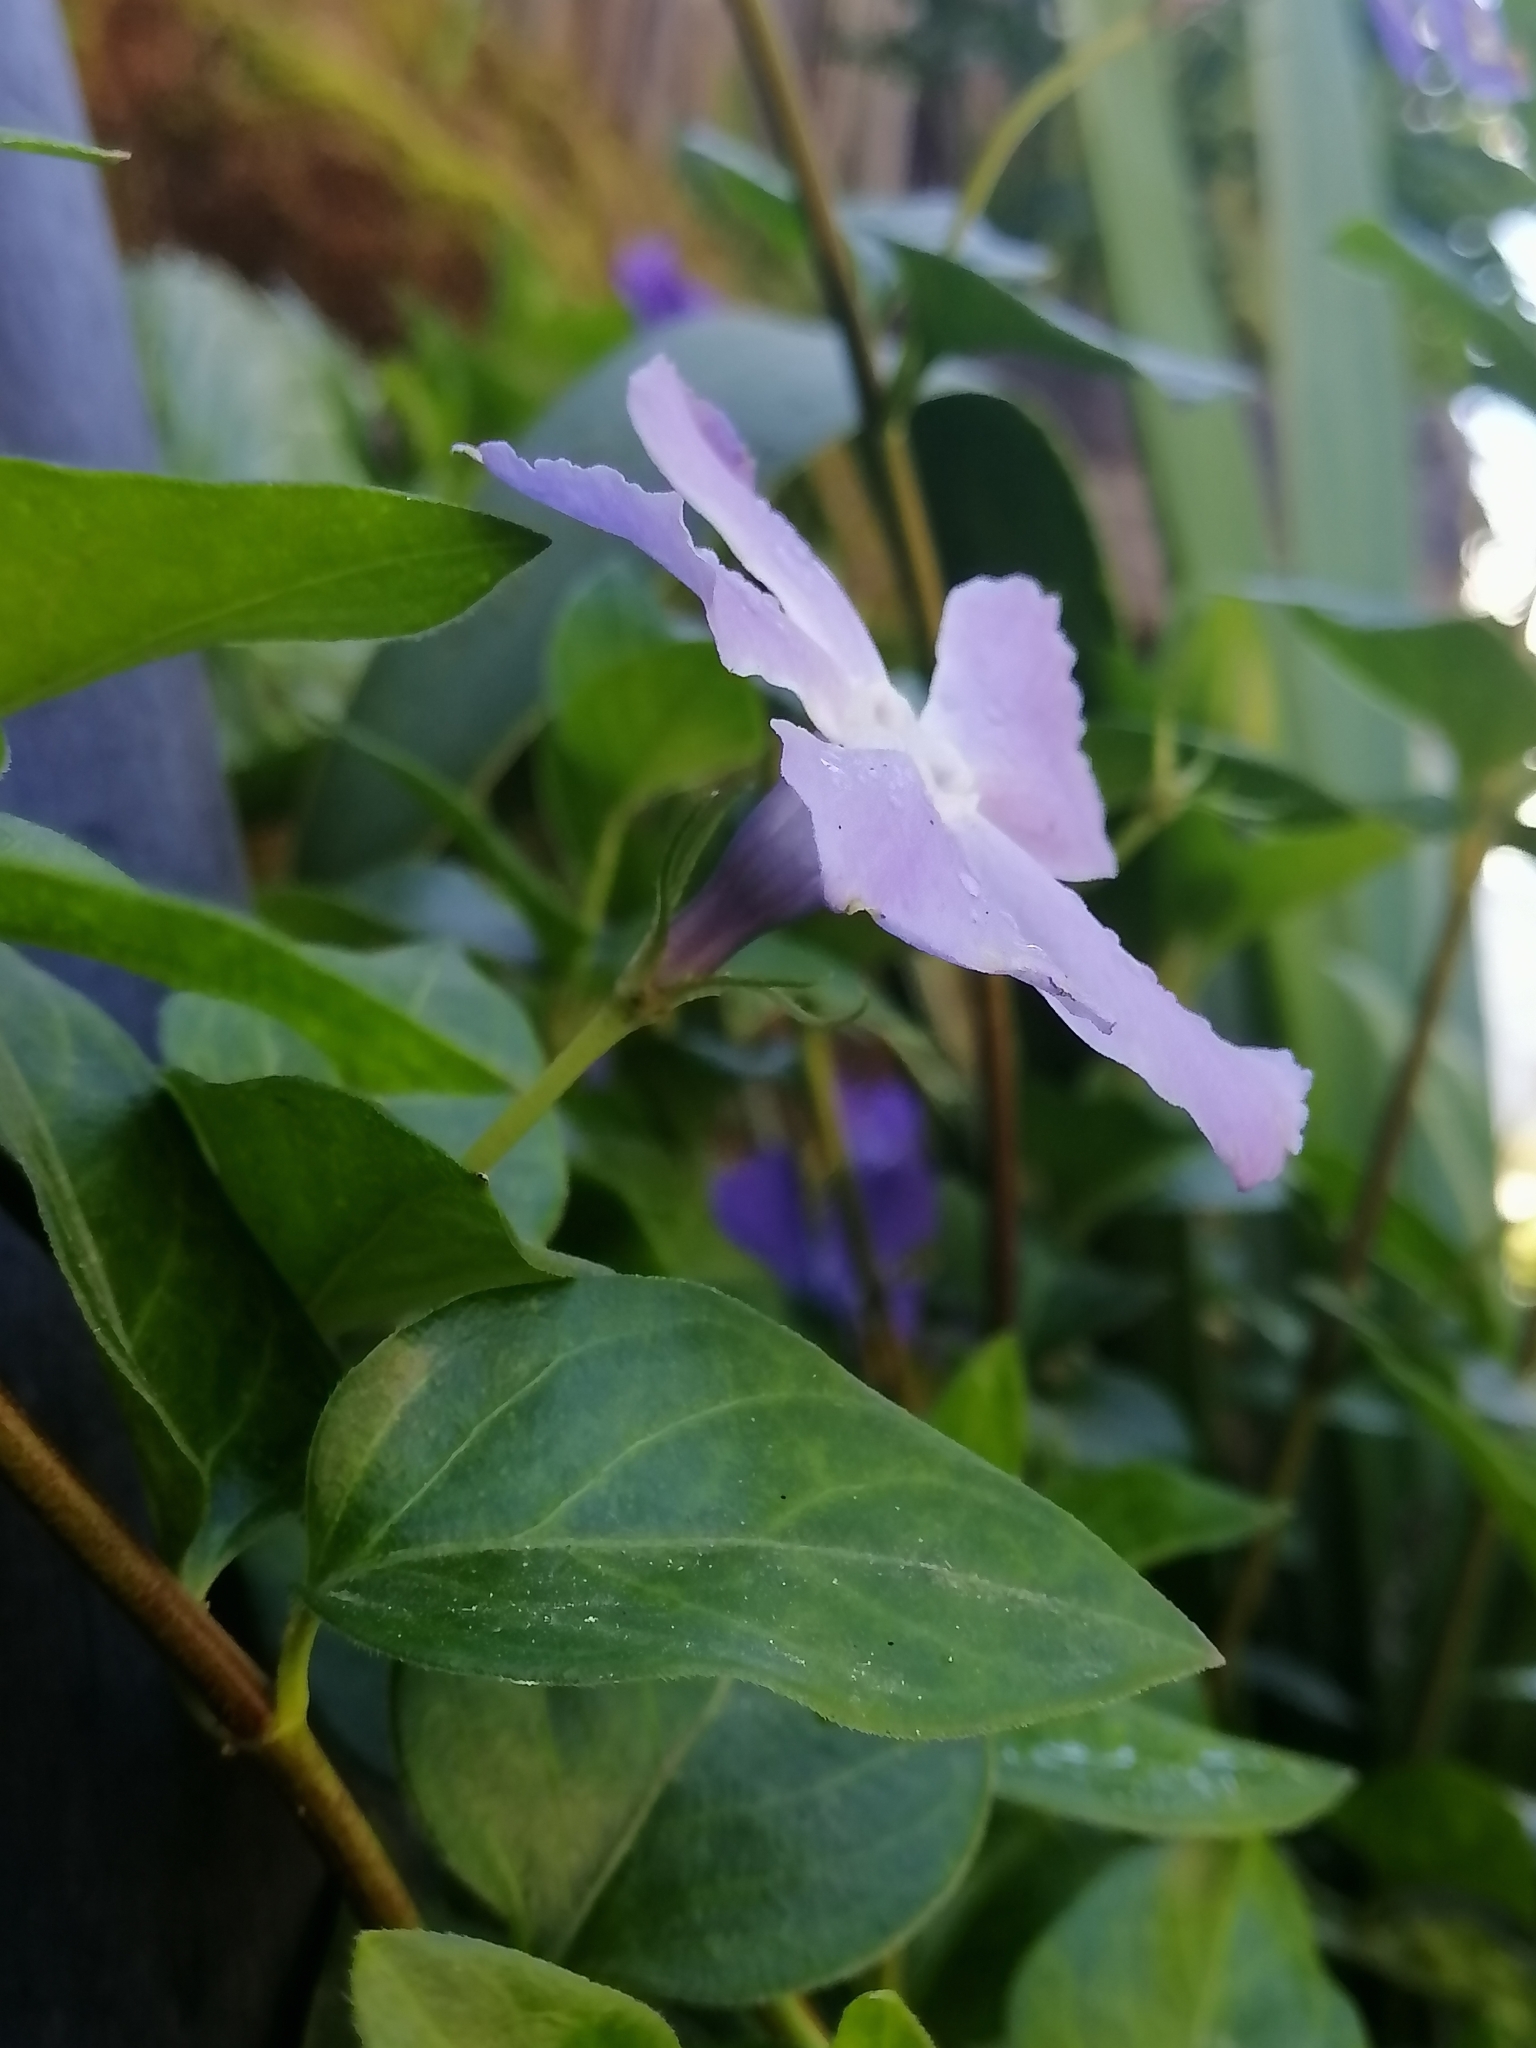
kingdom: Plantae
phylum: Tracheophyta
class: Magnoliopsida
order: Gentianales
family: Apocynaceae
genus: Vinca
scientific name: Vinca major
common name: Greater periwinkle
